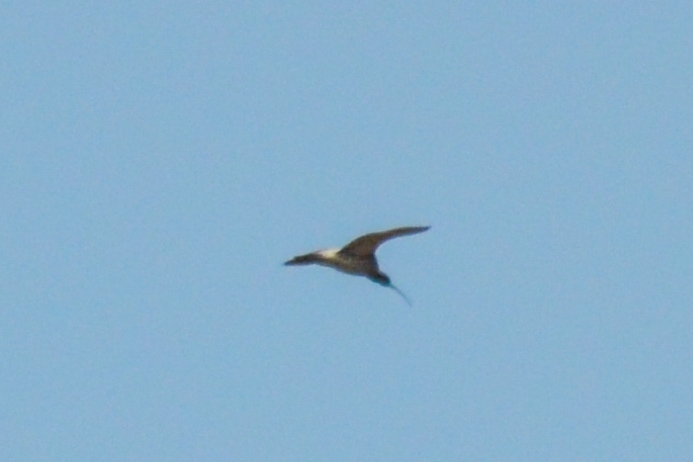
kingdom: Animalia
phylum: Chordata
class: Aves
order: Charadriiformes
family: Scolopacidae
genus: Numenius
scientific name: Numenius arquata
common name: Eurasian curlew
